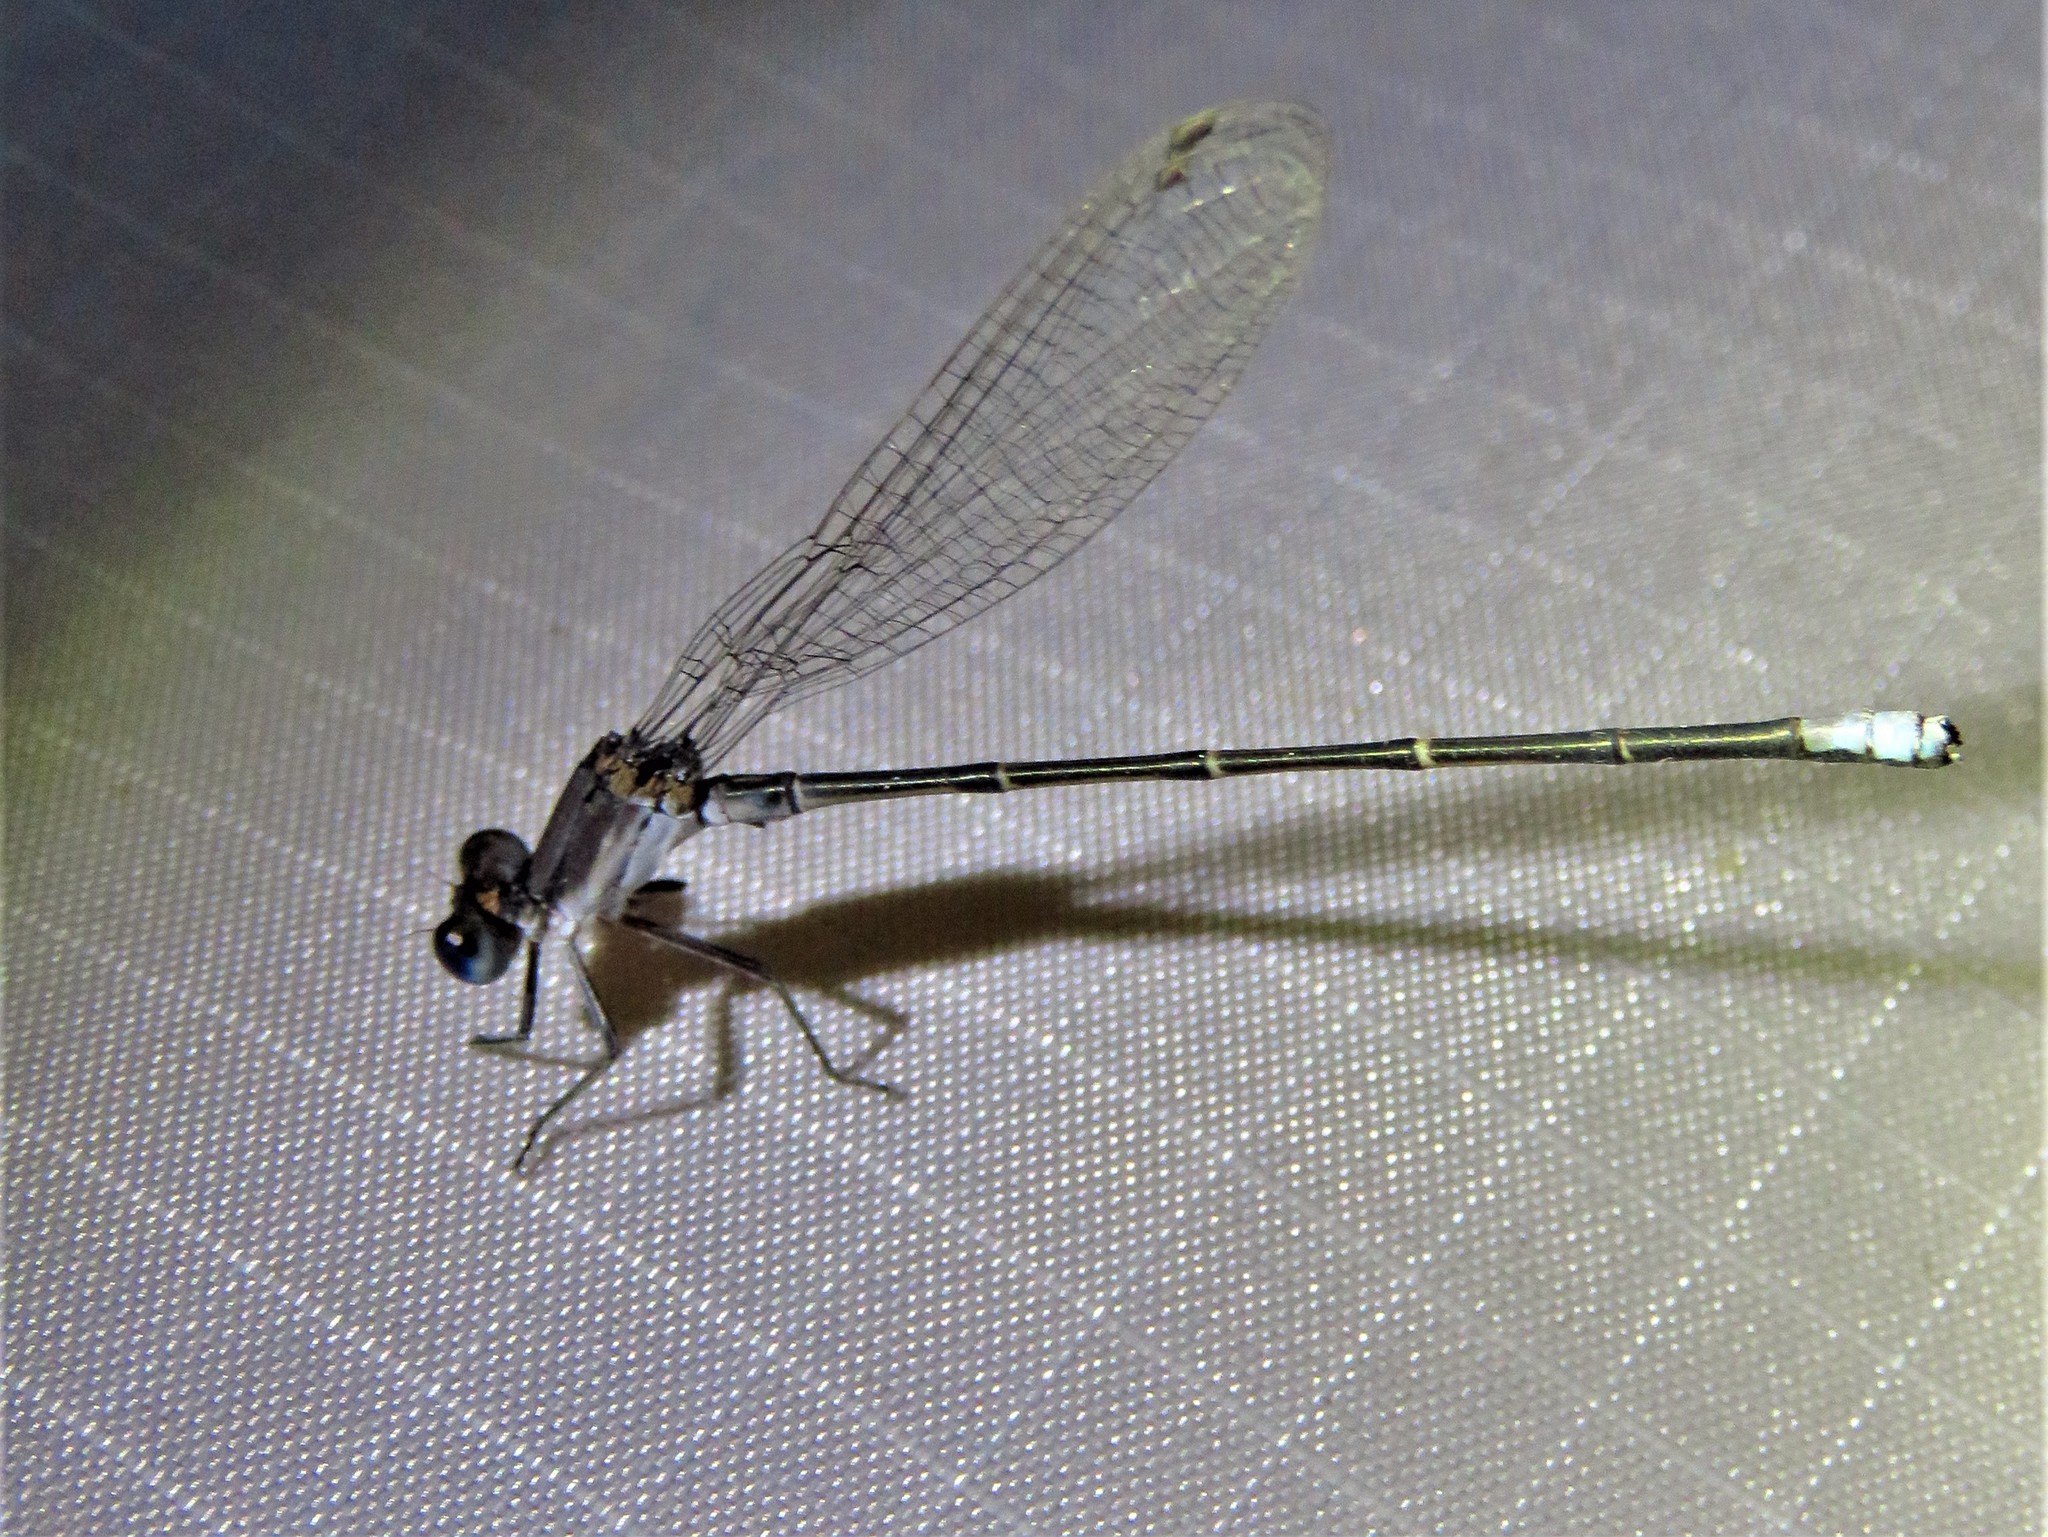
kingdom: Animalia
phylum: Arthropoda
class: Insecta
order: Odonata
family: Coenagrionidae
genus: Argia
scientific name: Argia apicalis
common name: Blue-fronted dancer
